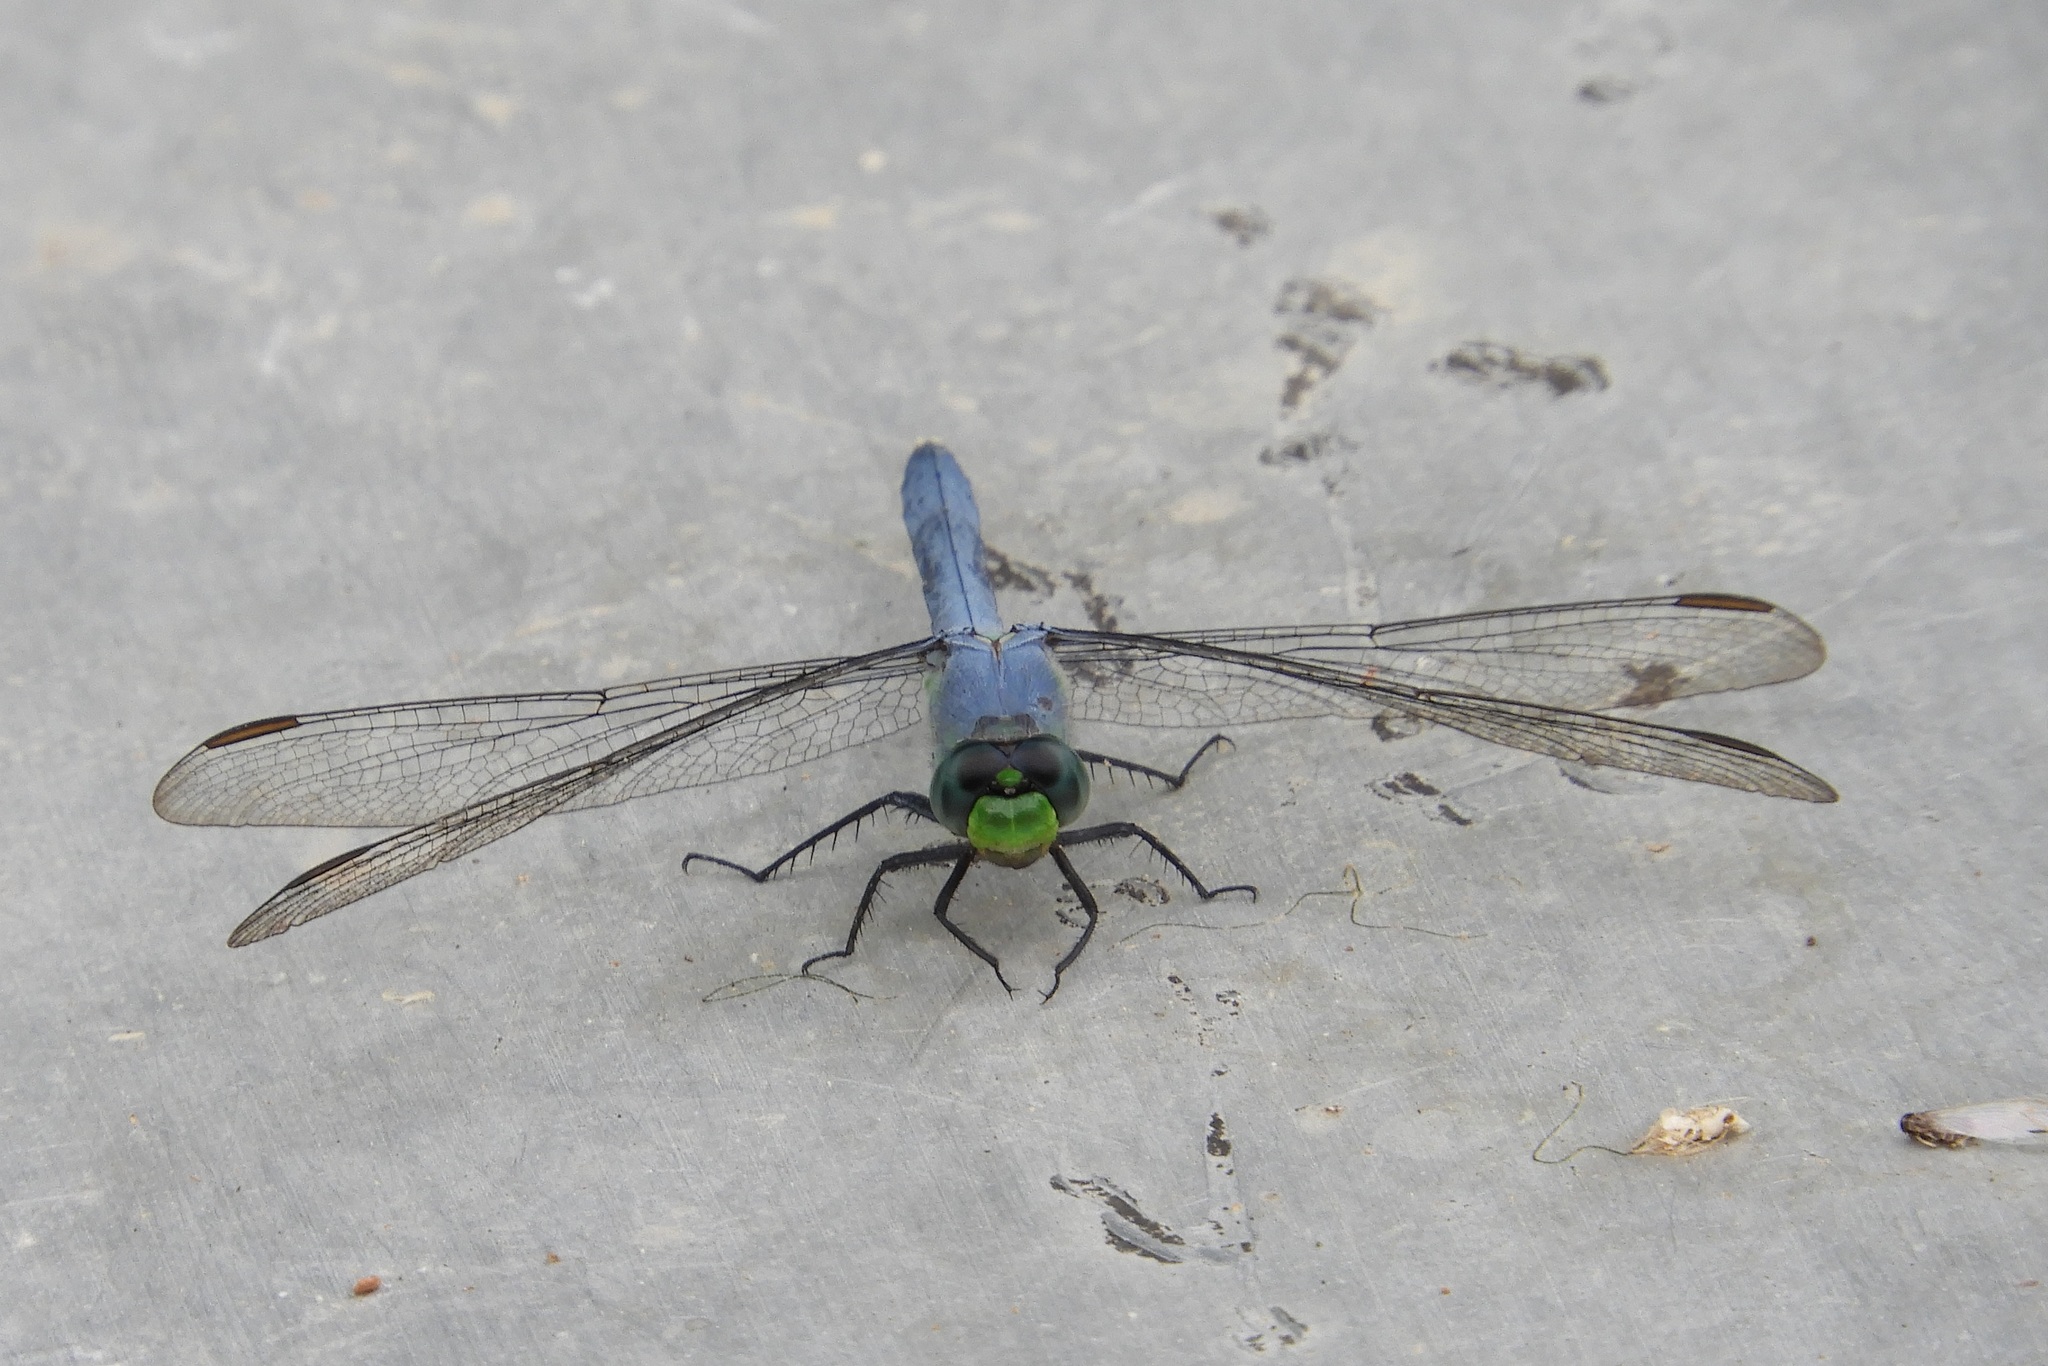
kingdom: Animalia
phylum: Arthropoda
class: Insecta
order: Odonata
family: Libellulidae
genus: Erythemis
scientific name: Erythemis simplicicollis
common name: Eastern pondhawk
